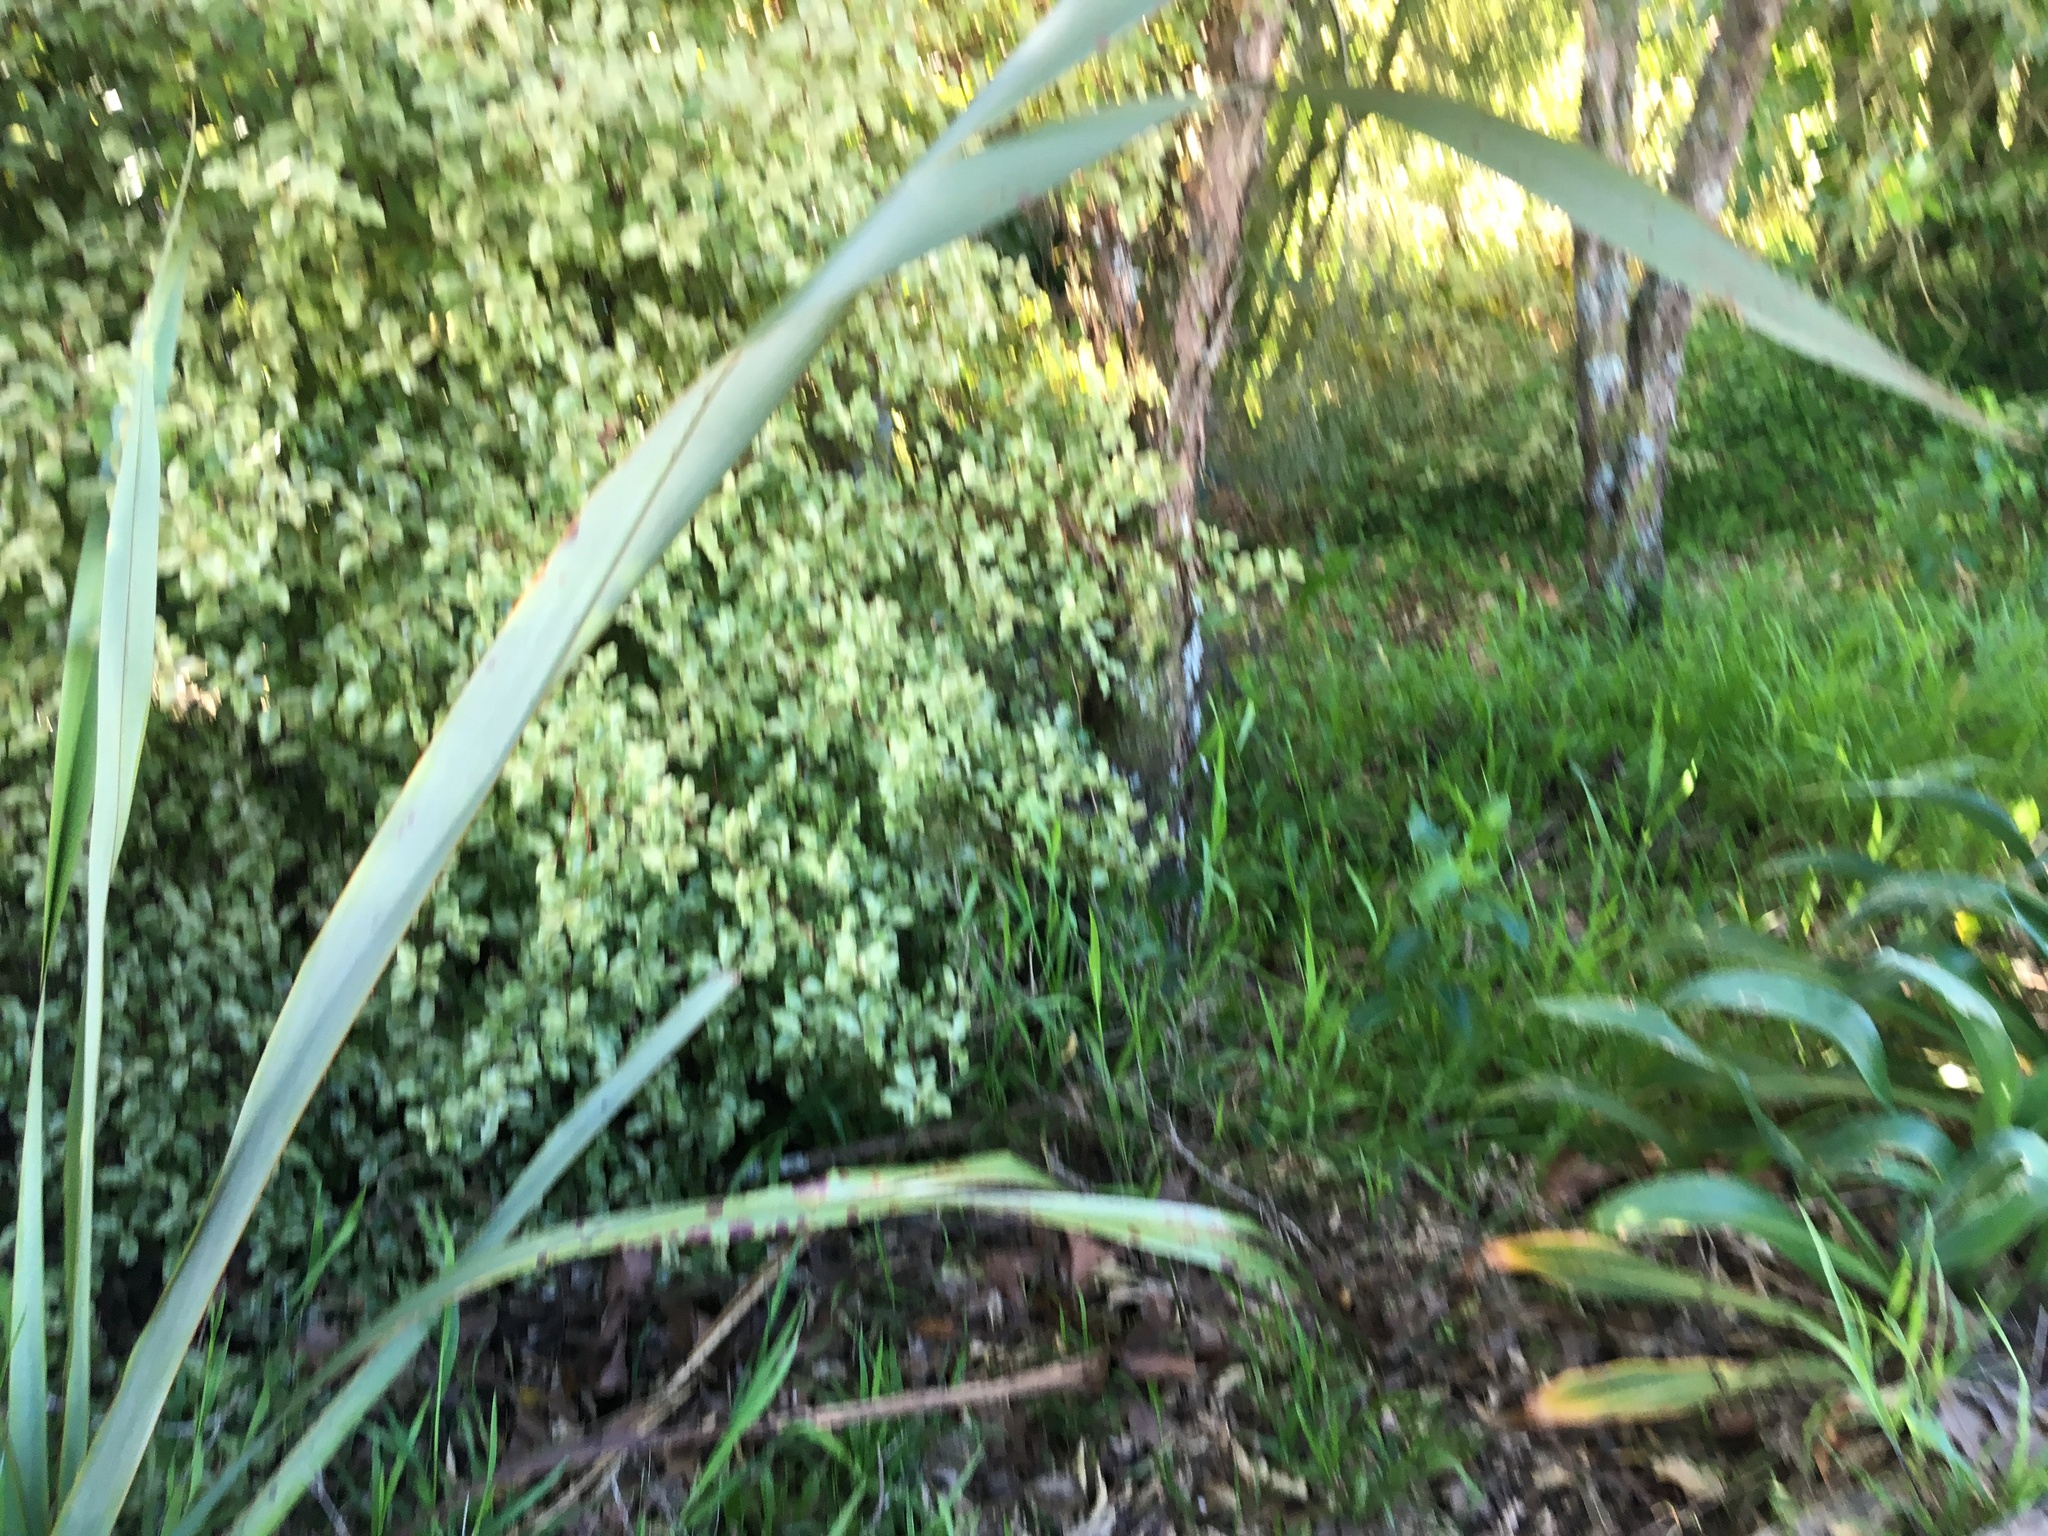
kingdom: Plantae
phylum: Tracheophyta
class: Liliopsida
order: Asparagales
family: Asphodelaceae
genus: Phormium
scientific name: Phormium tenax
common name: New zealand flax
